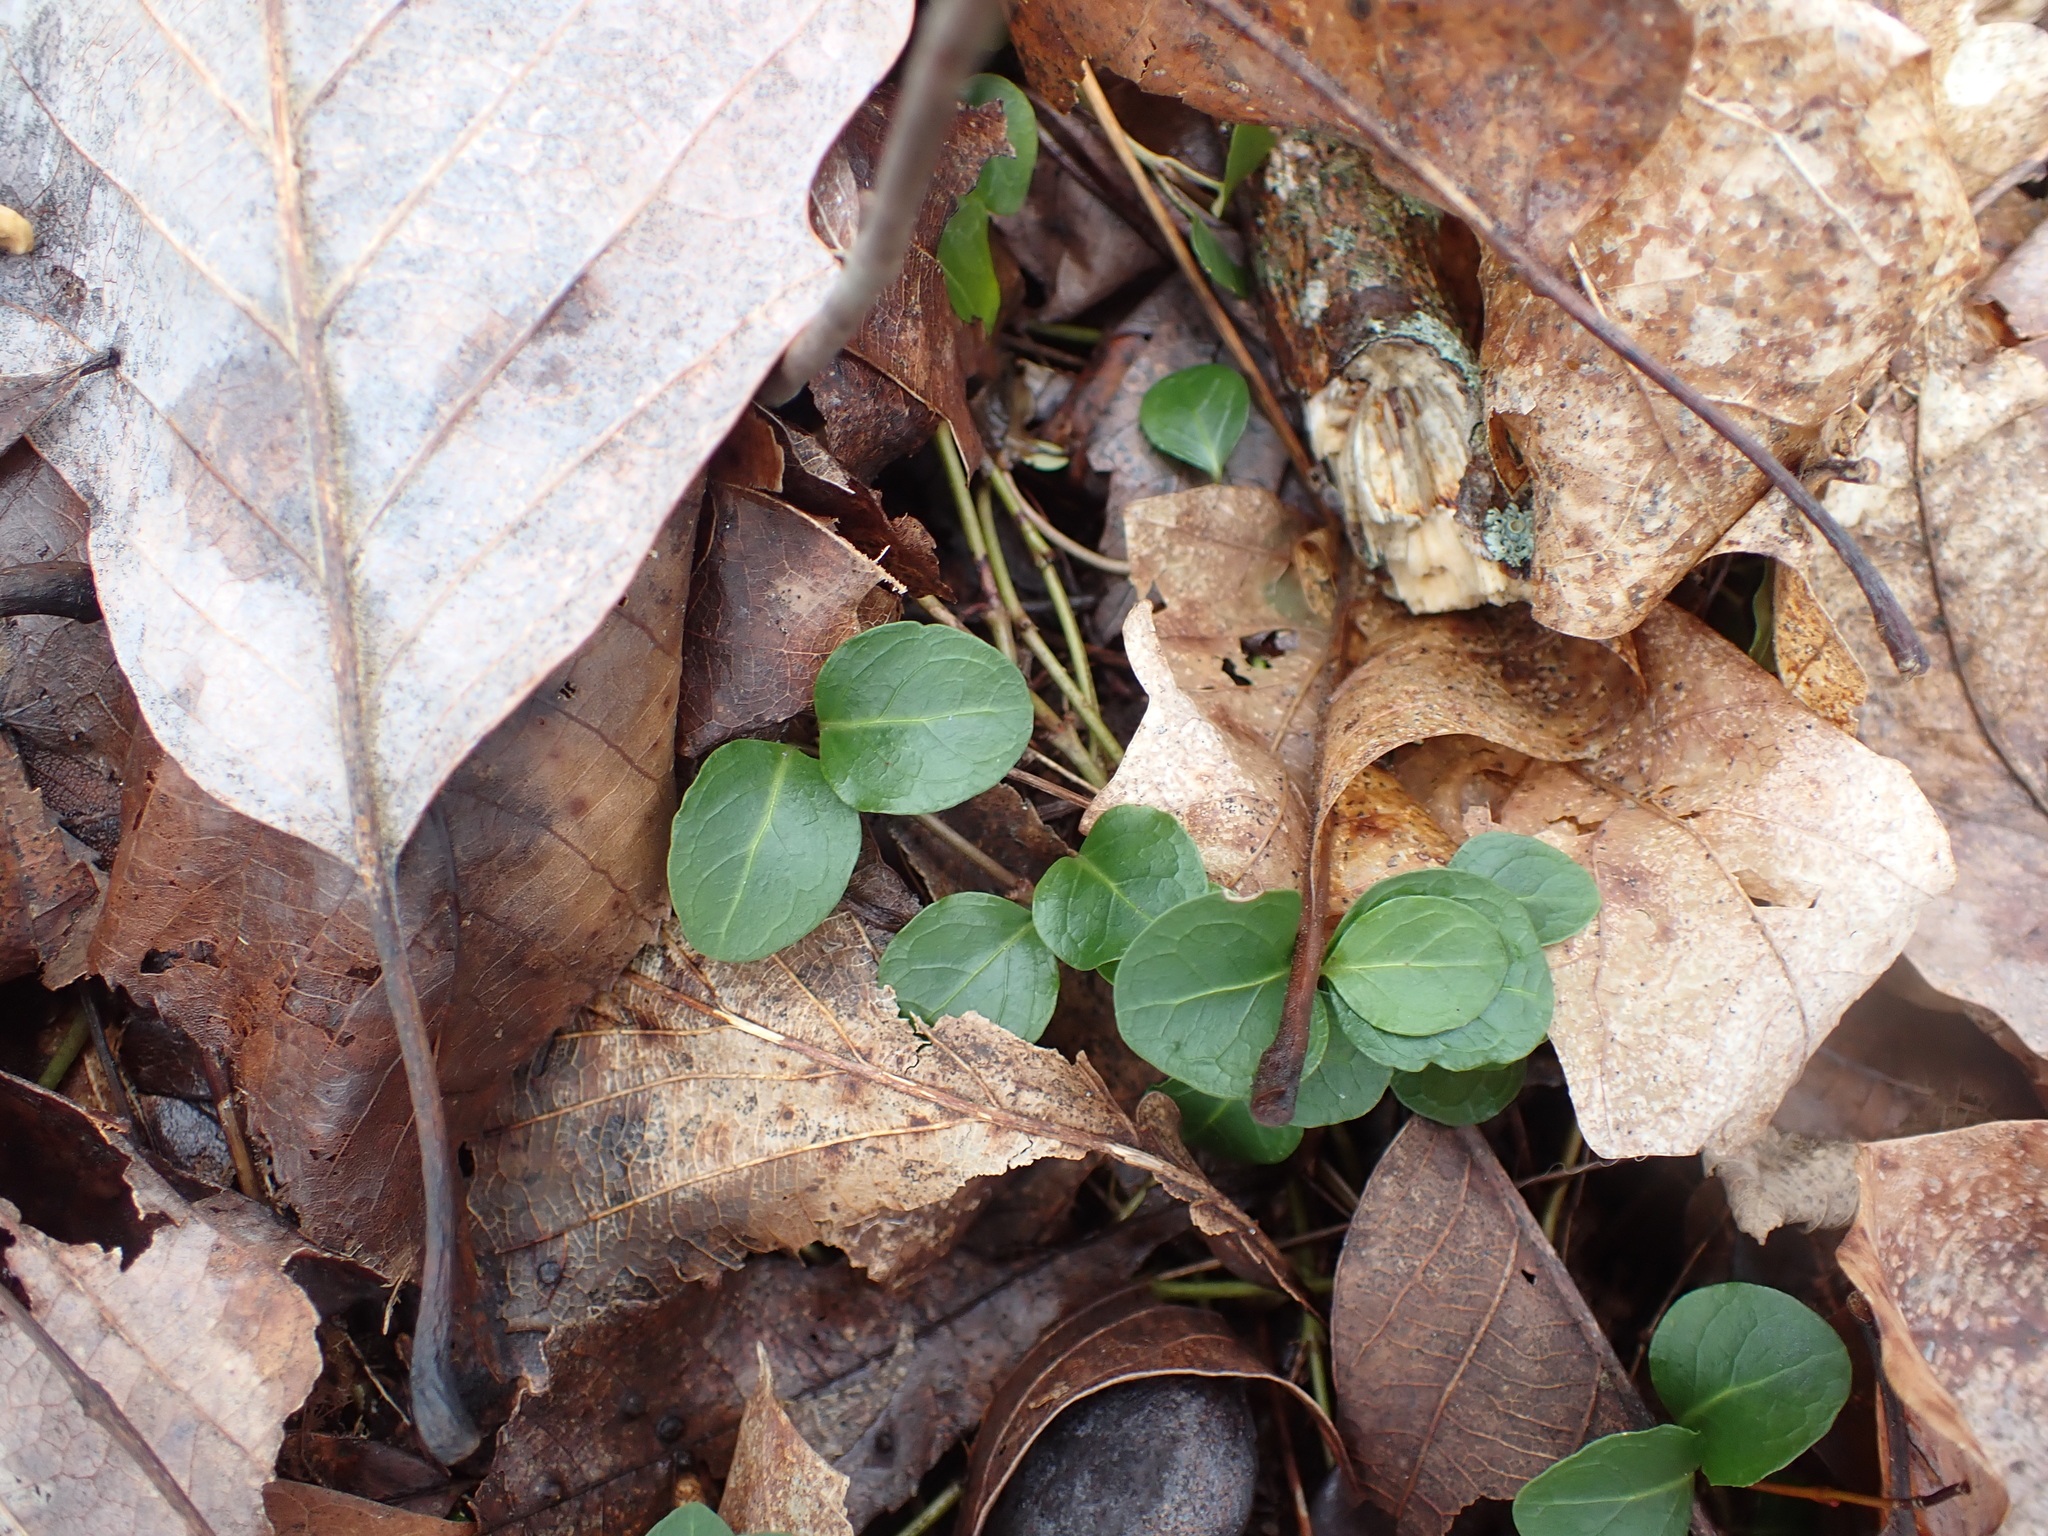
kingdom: Plantae
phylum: Tracheophyta
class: Magnoliopsida
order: Gentianales
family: Rubiaceae
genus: Mitchella
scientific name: Mitchella repens
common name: Partridge-berry
